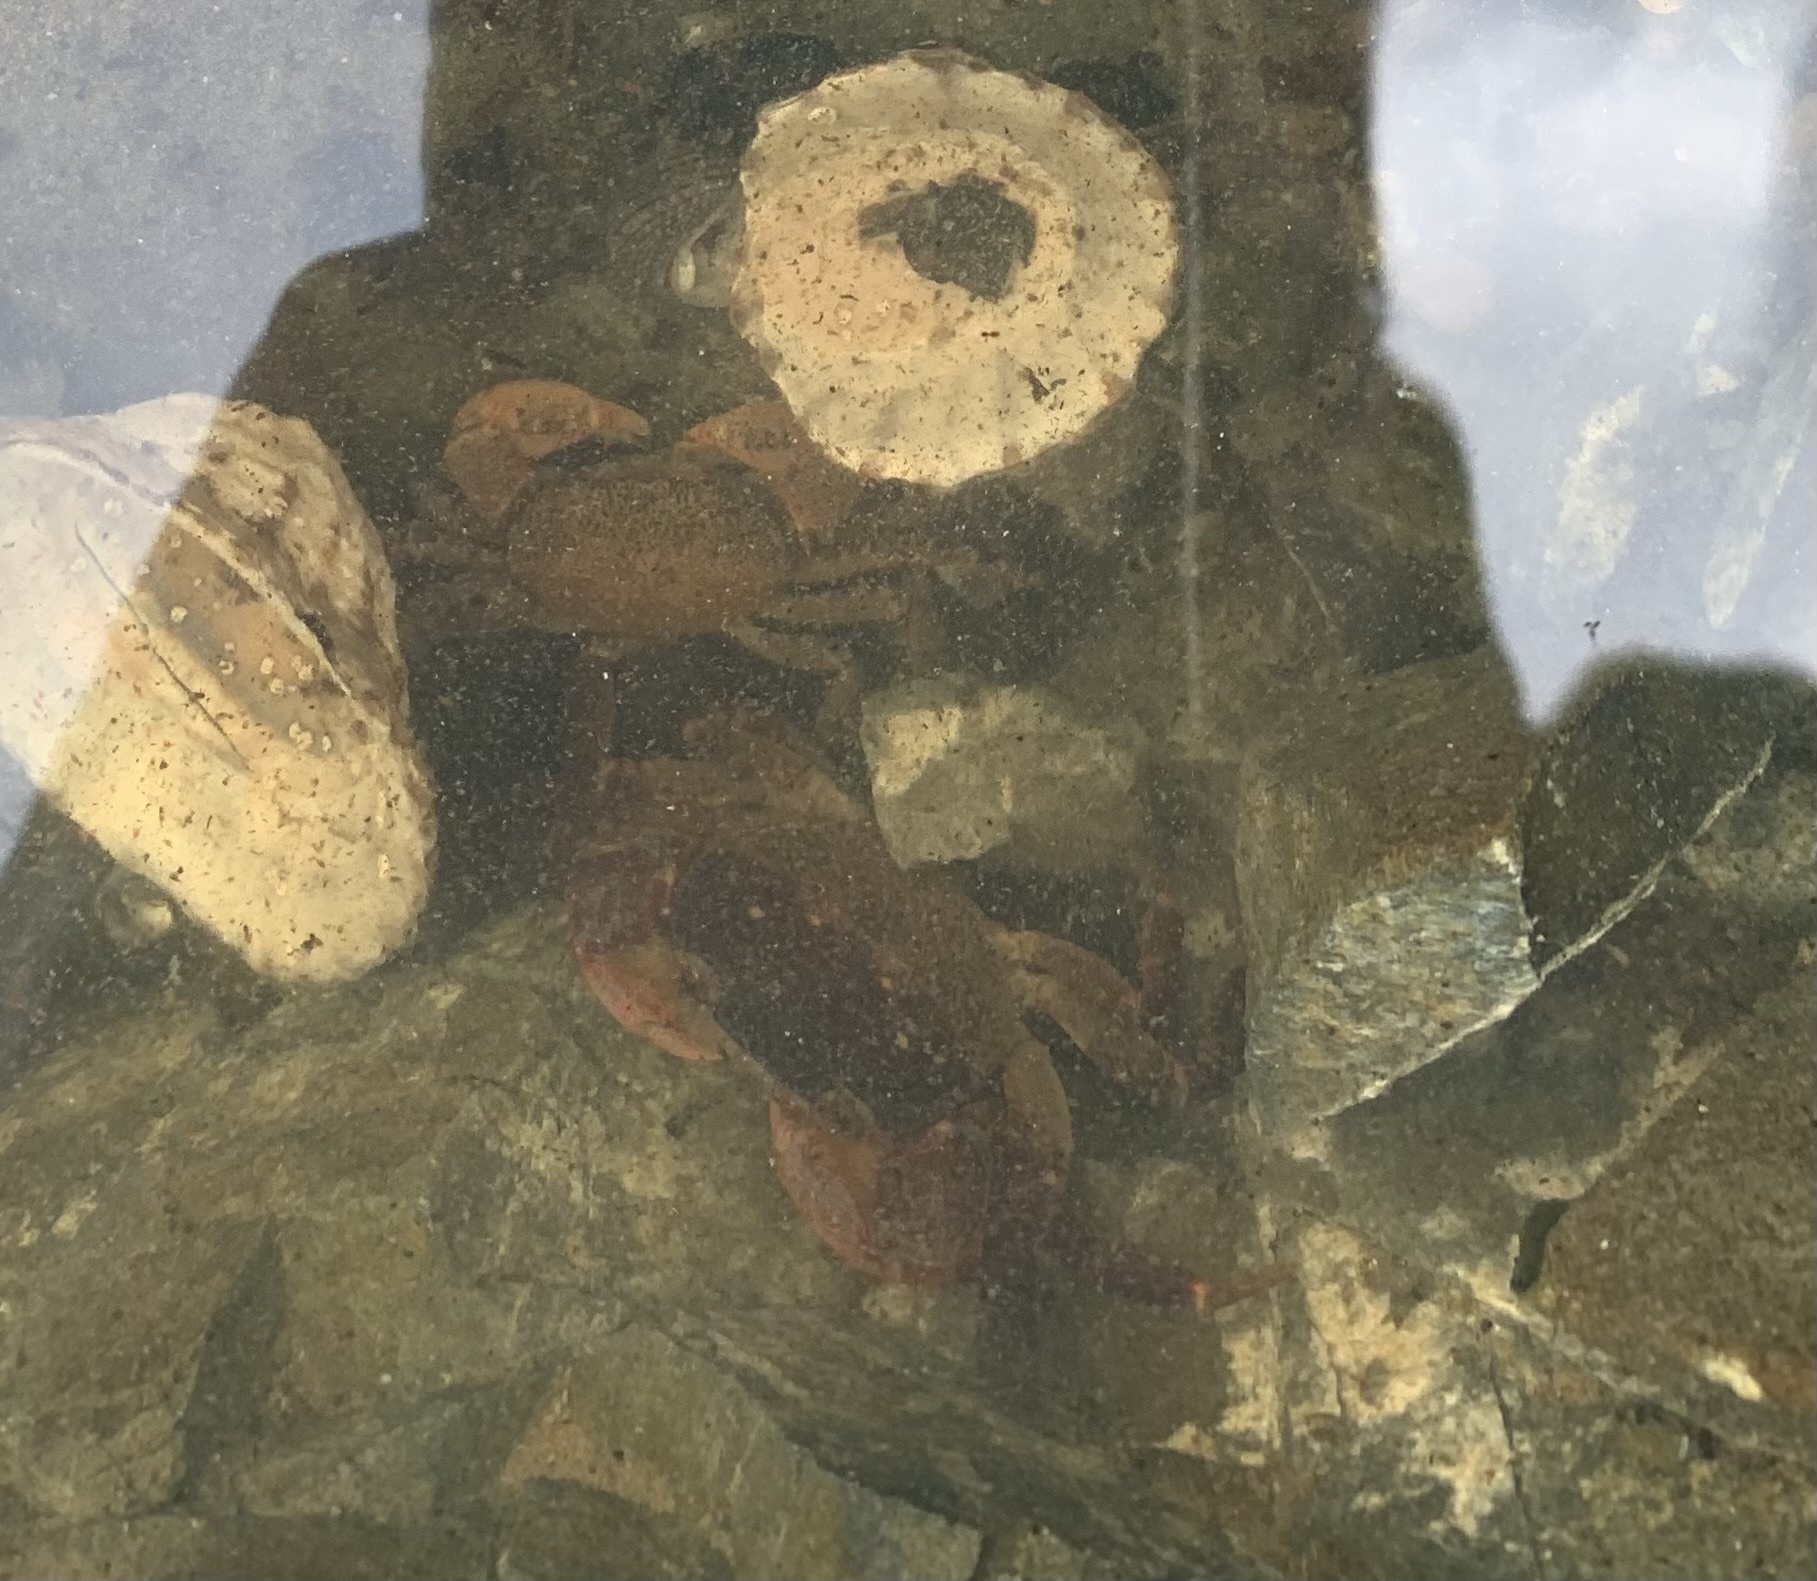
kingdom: Animalia
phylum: Arthropoda
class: Malacostraca
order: Decapoda
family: Varunidae
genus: Cyclograpsus
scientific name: Cyclograpsus lavauxi
